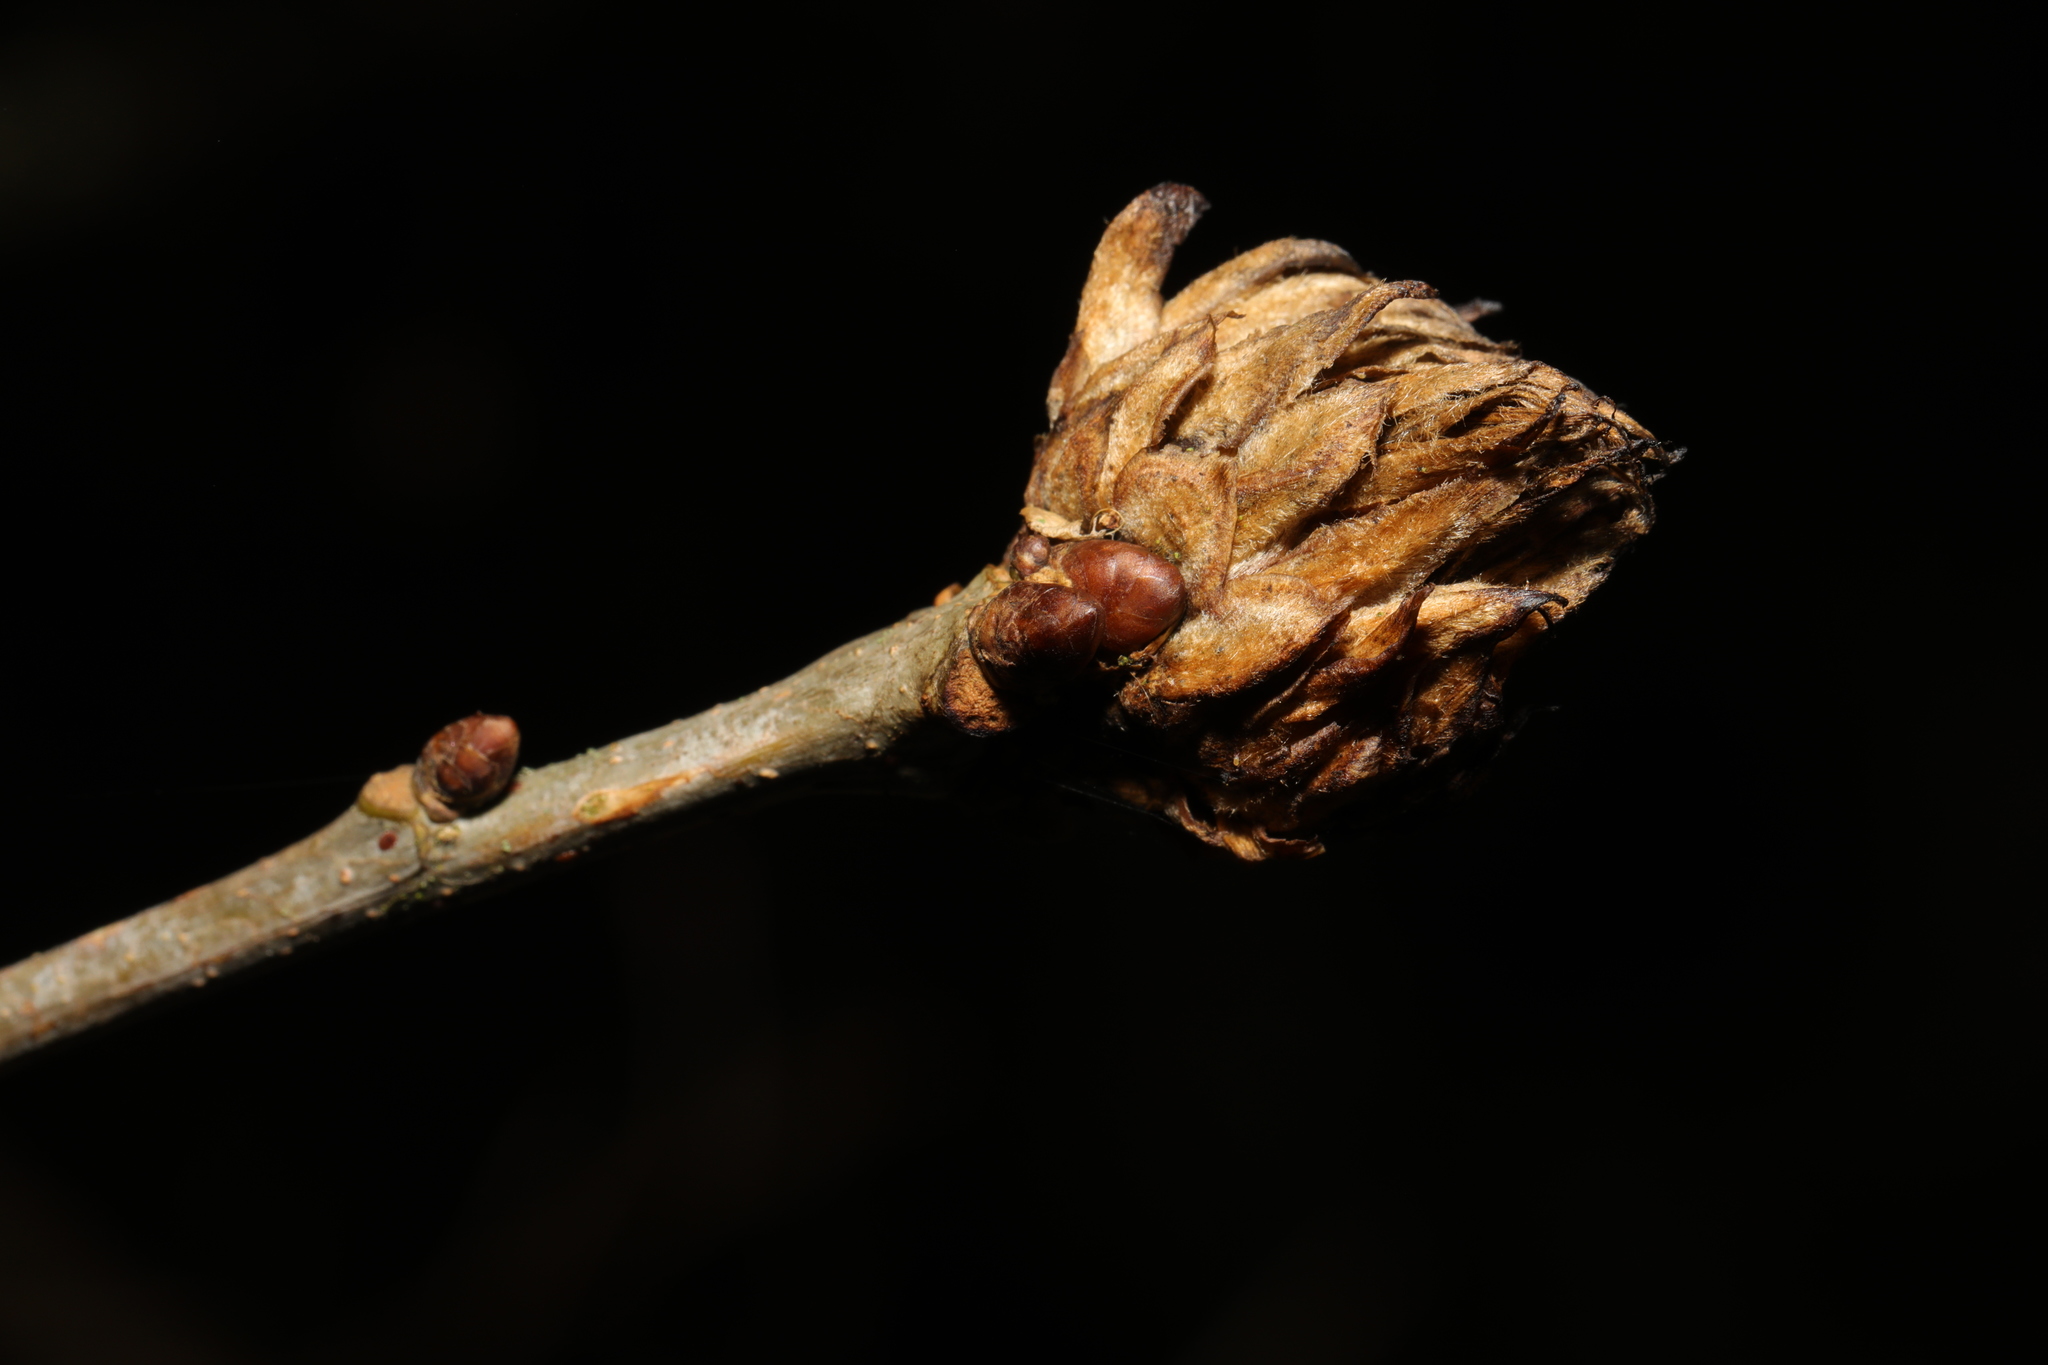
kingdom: Animalia
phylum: Arthropoda
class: Insecta
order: Hymenoptera
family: Cynipidae
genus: Andricus
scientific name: Andricus foecundatrix
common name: Artichoke gall
